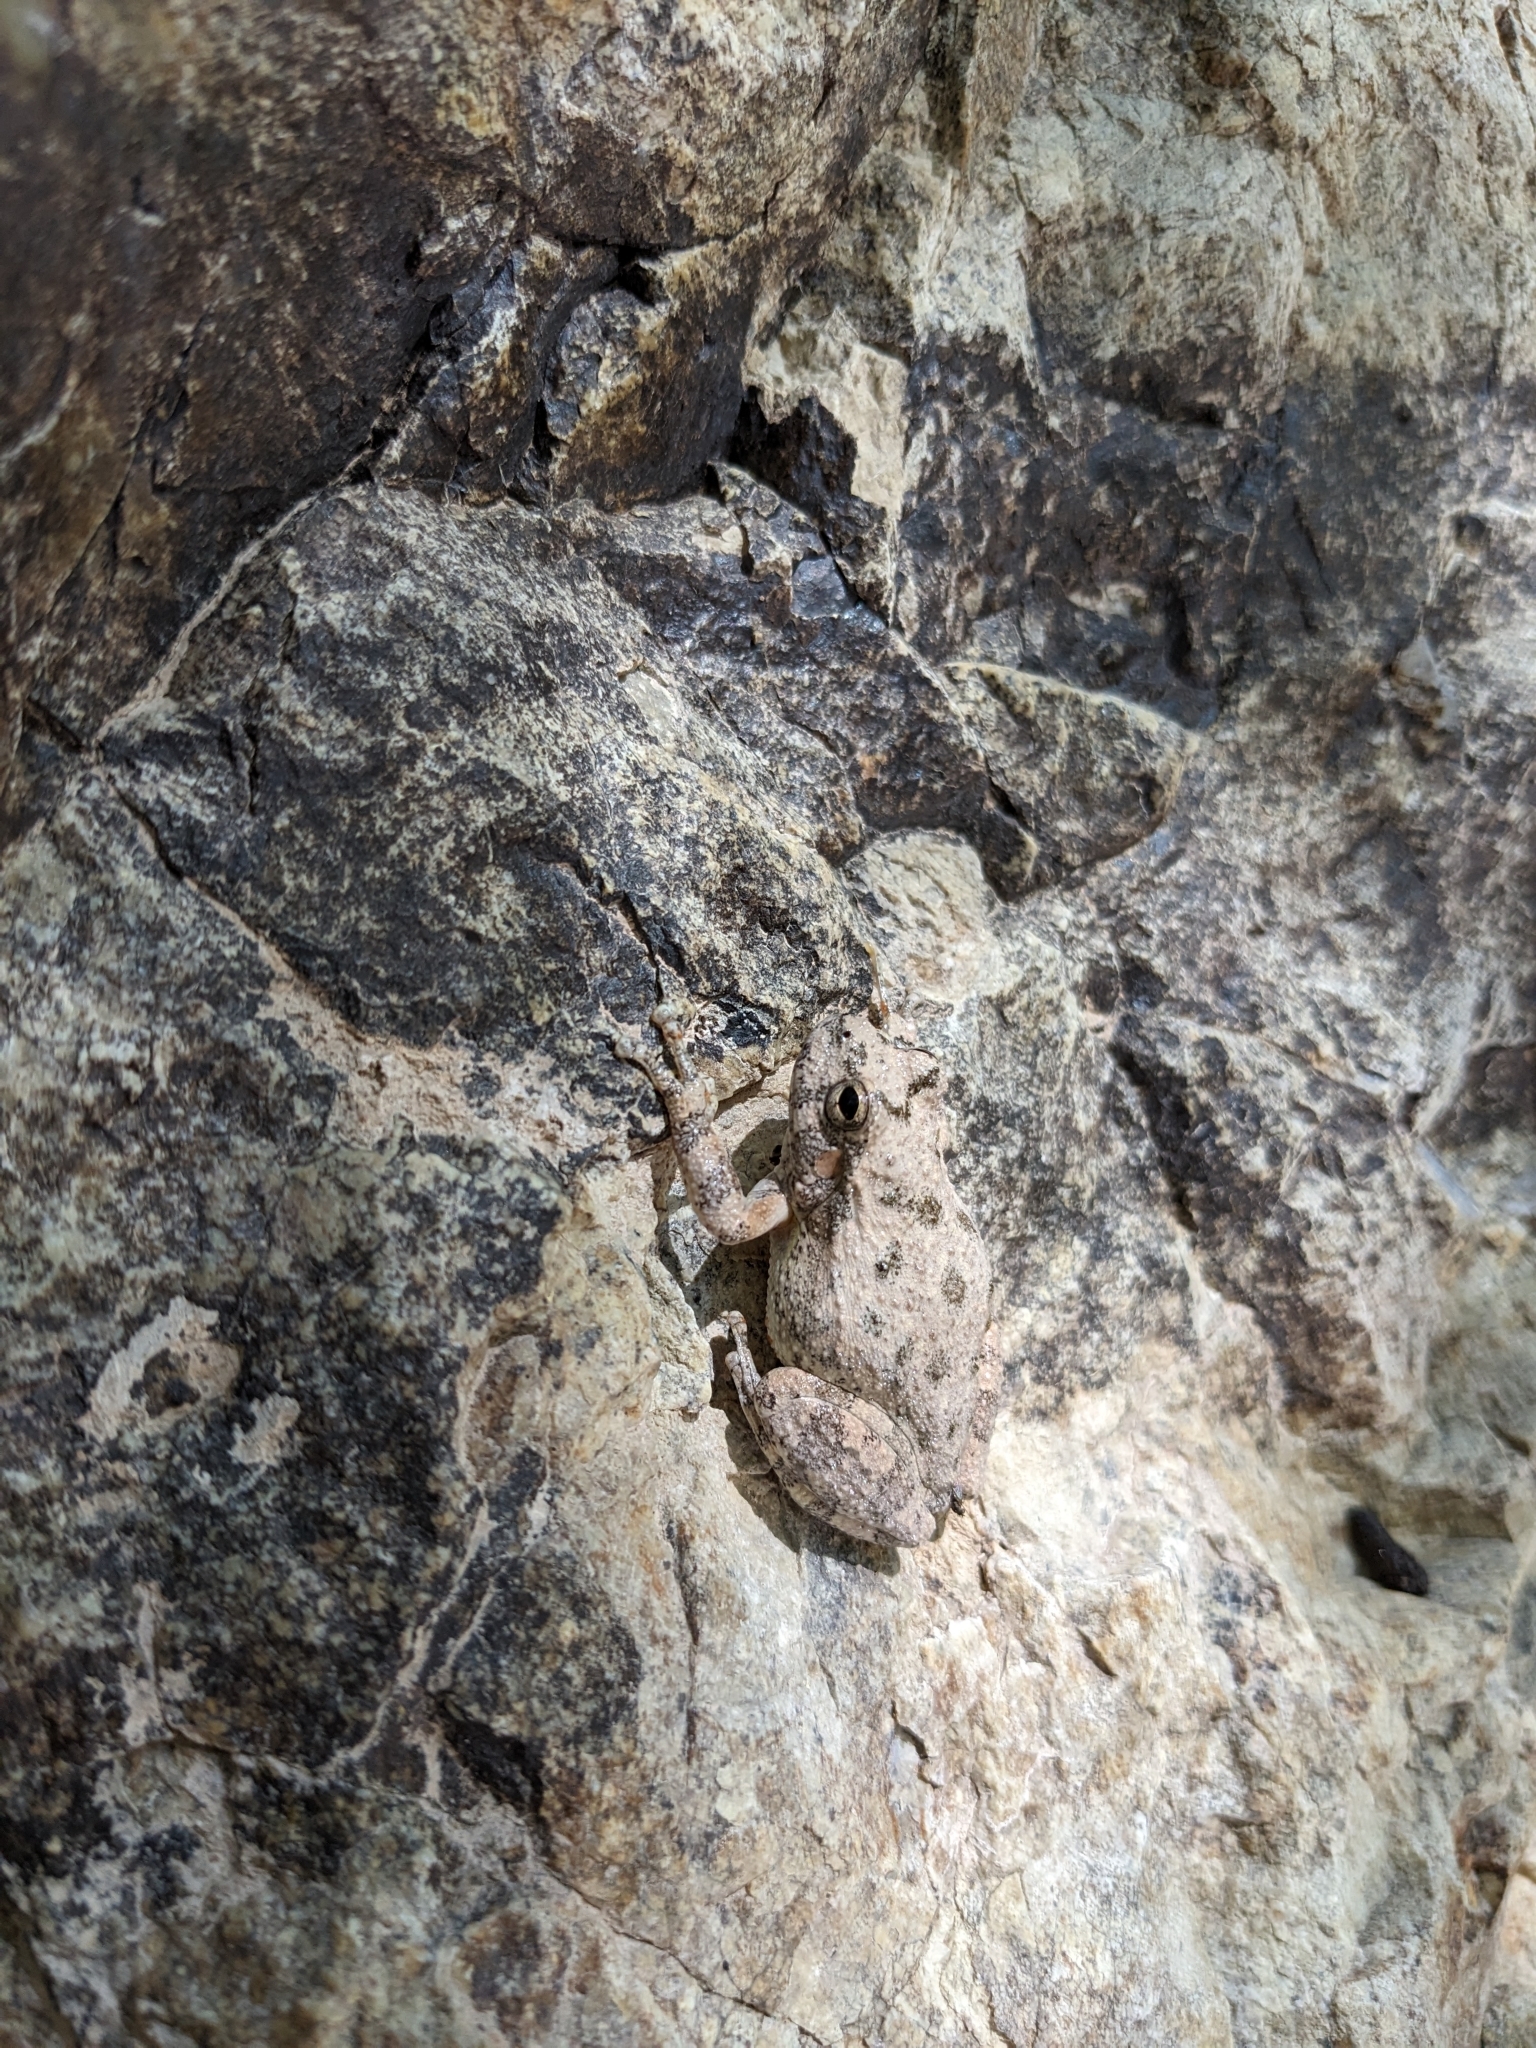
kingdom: Animalia
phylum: Chordata
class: Amphibia
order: Anura
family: Hylidae
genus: Dryophytes
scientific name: Dryophytes arenicolor
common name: Canyon treefrog
